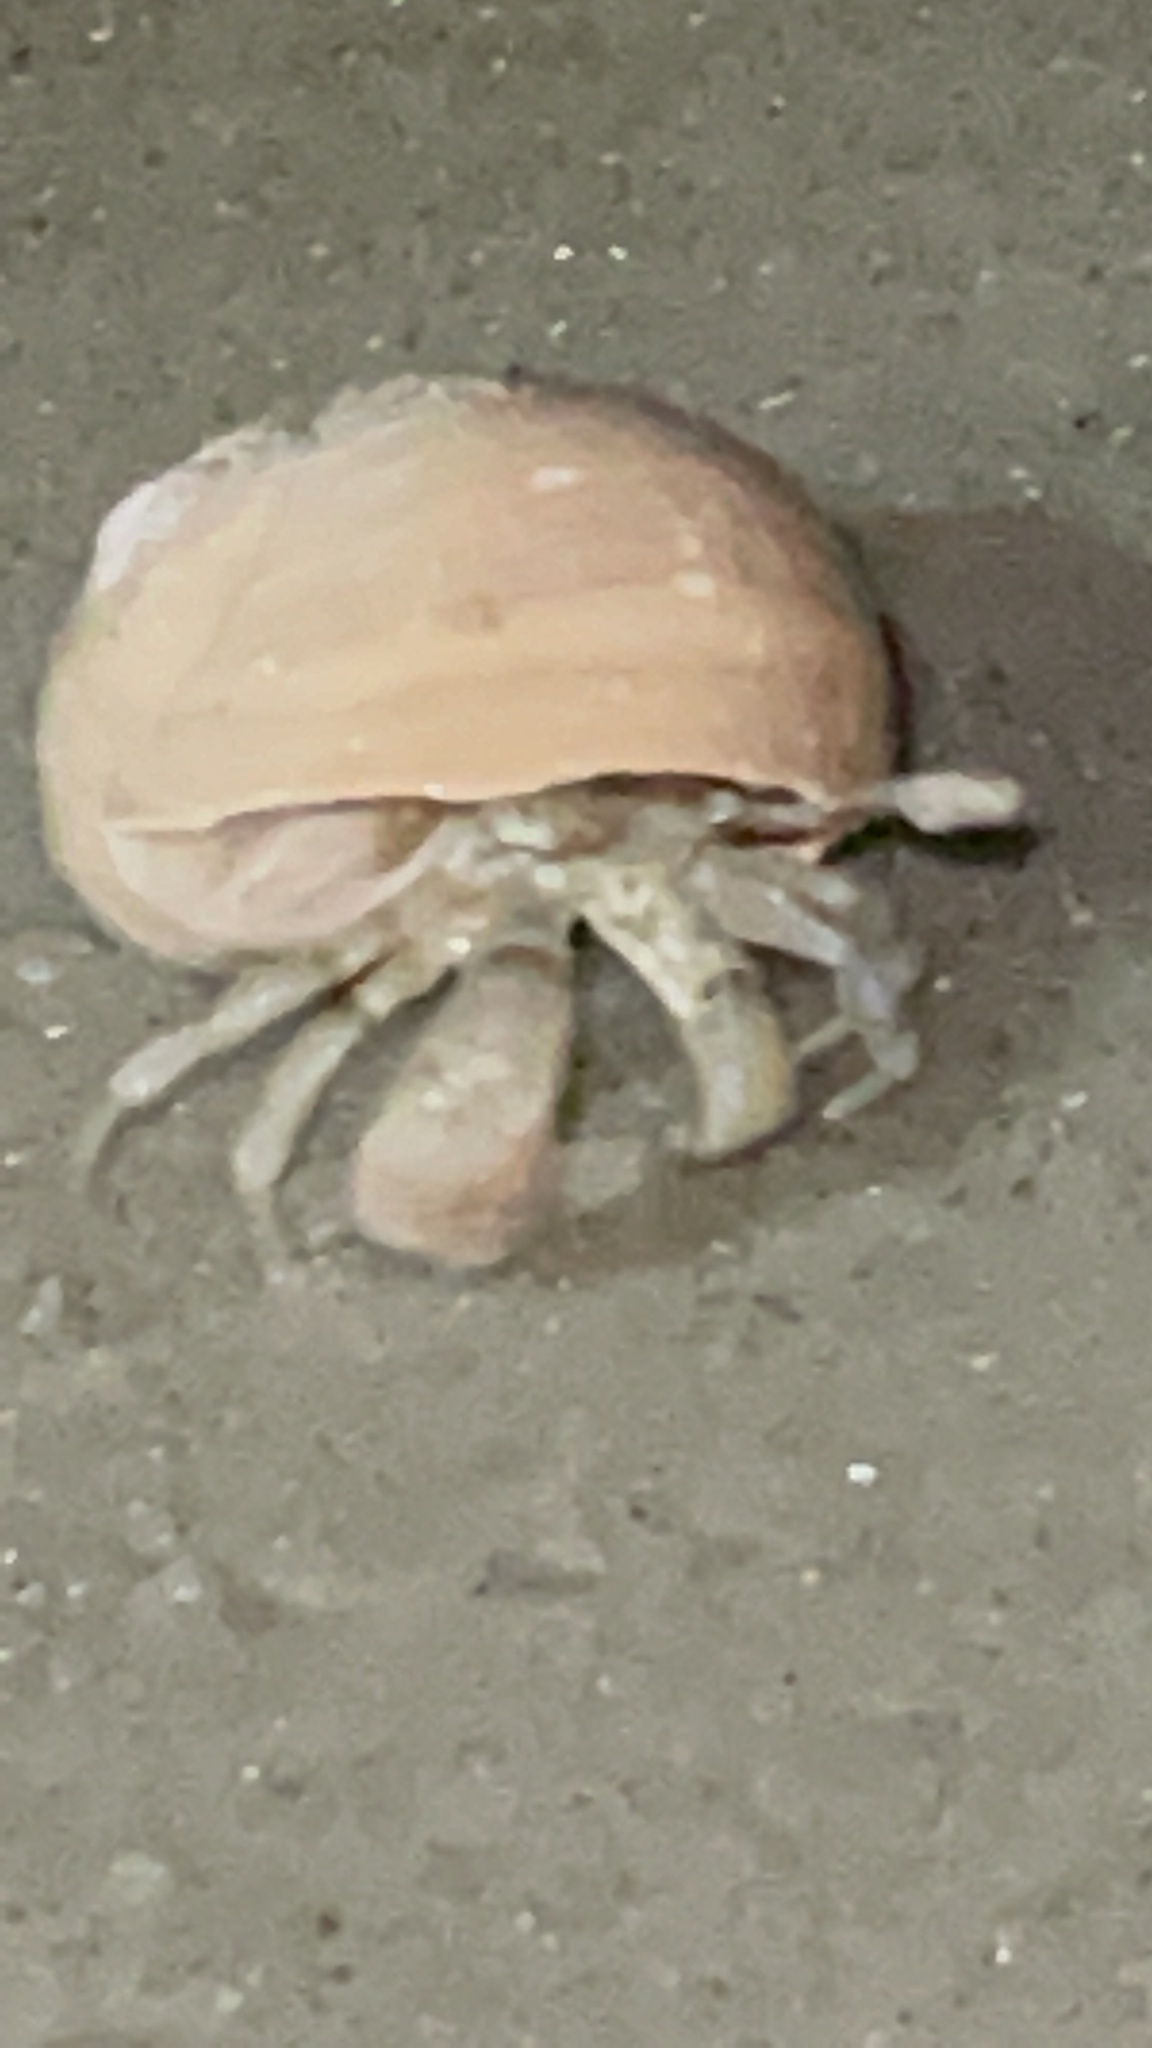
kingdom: Animalia
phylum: Arthropoda
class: Malacostraca
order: Decapoda
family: Paguridae
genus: Pagurus
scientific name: Pagurus pollicaris
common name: Flatclaw hermit
